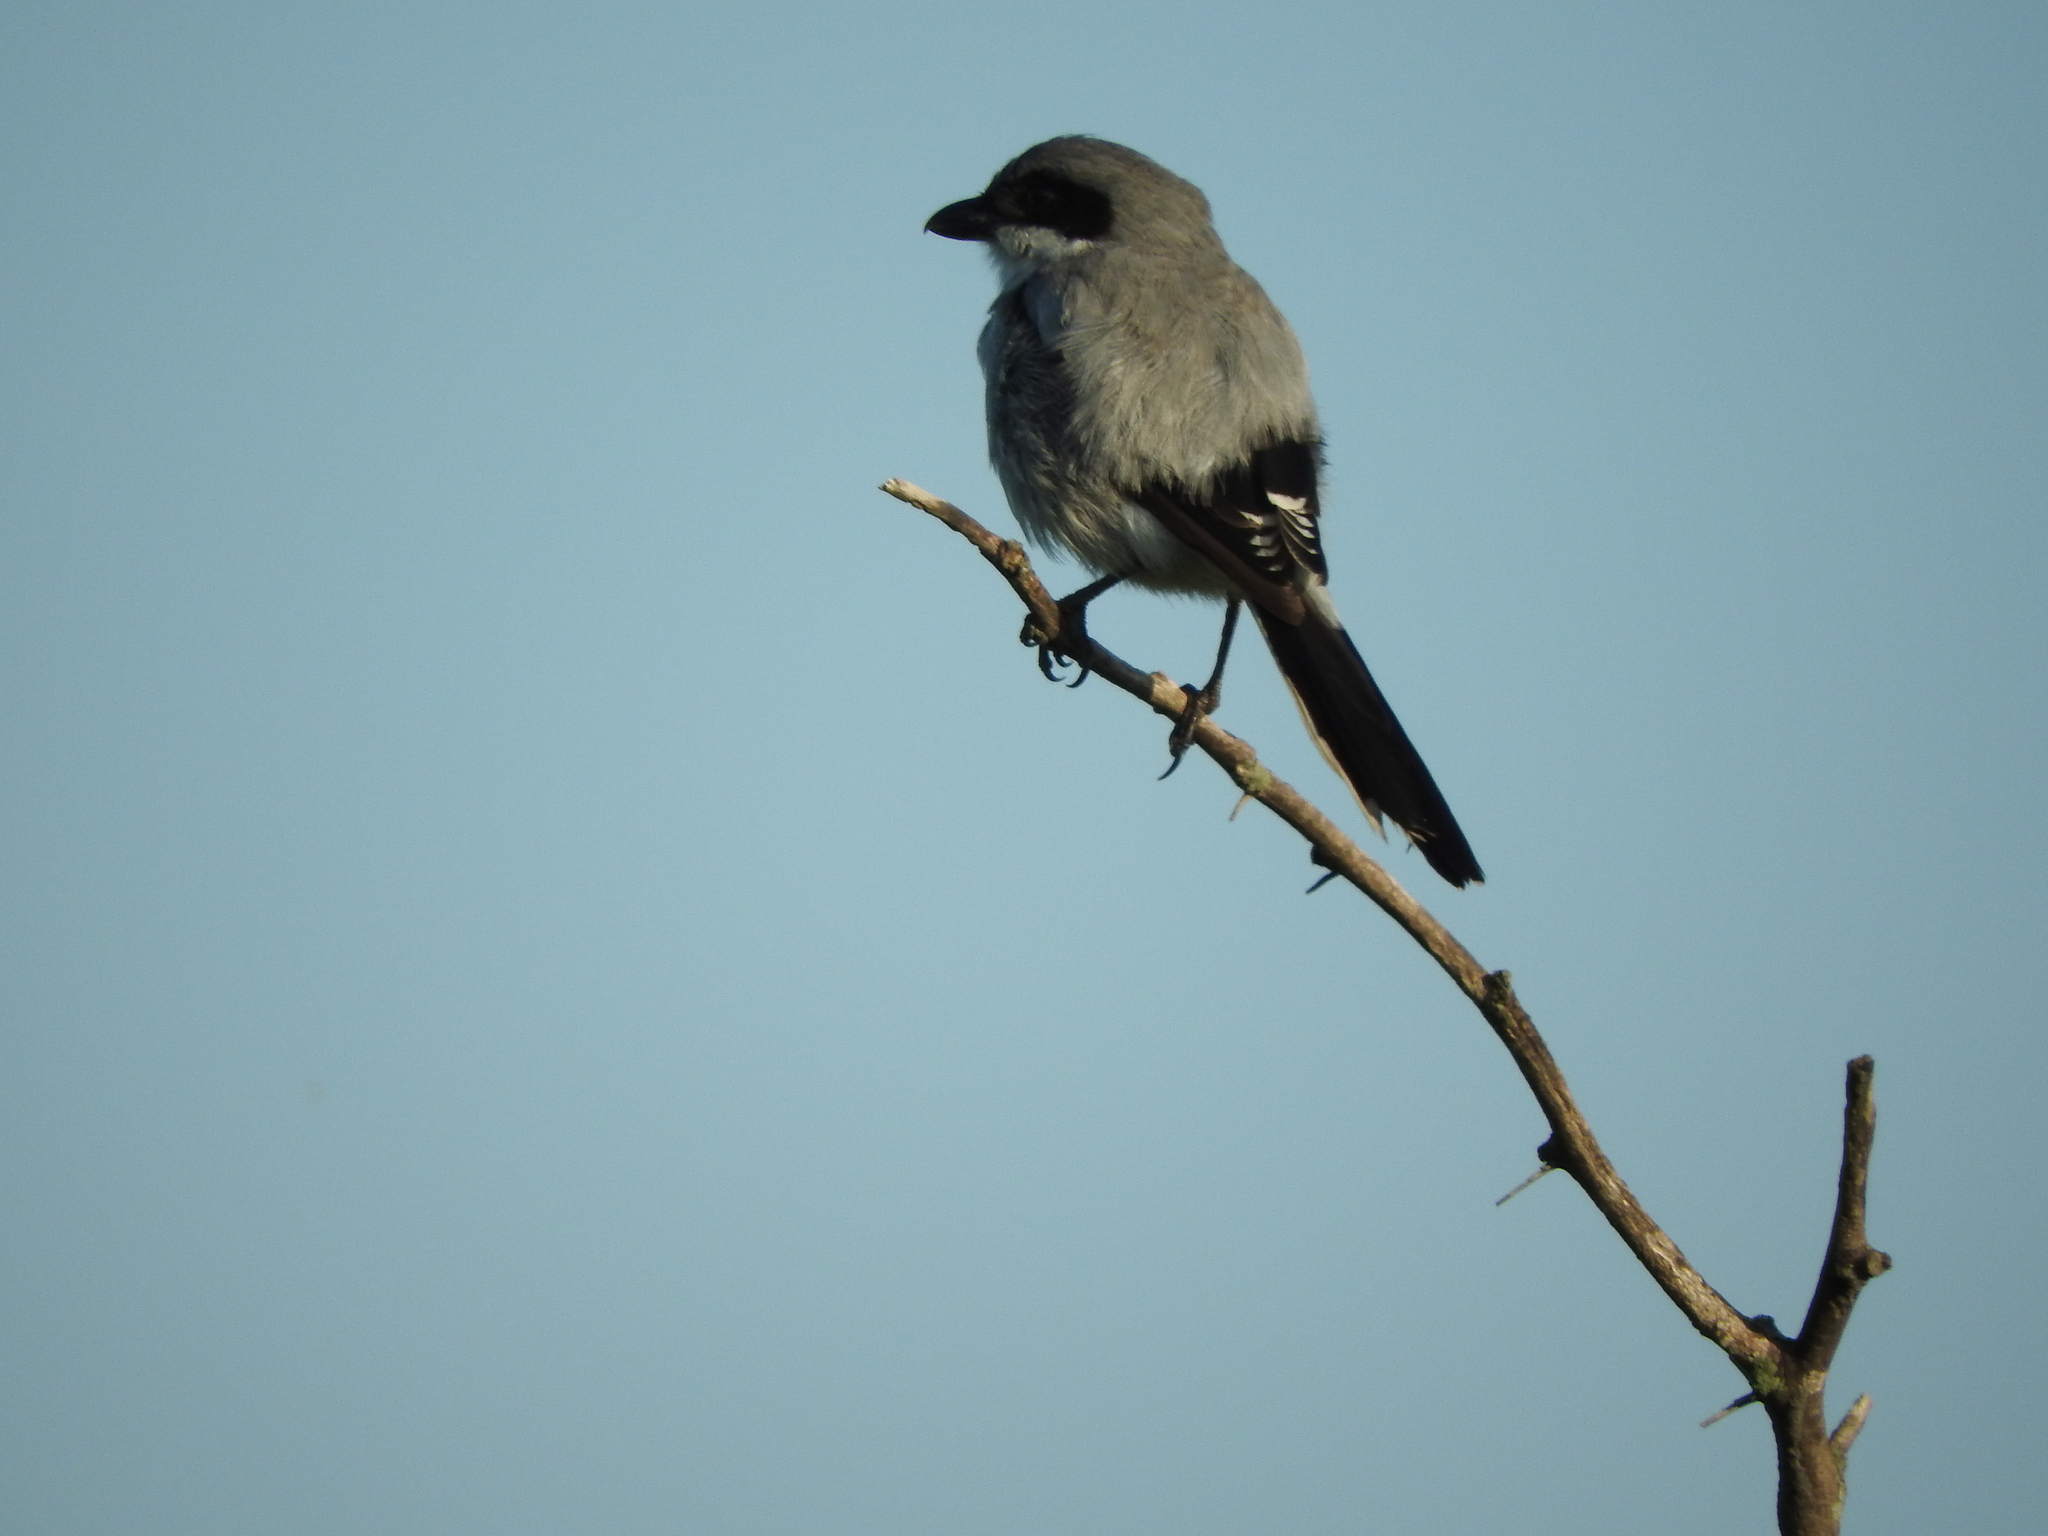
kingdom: Animalia
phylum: Chordata
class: Aves
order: Passeriformes
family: Laniidae
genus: Lanius
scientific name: Lanius ludovicianus
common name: Loggerhead shrike
